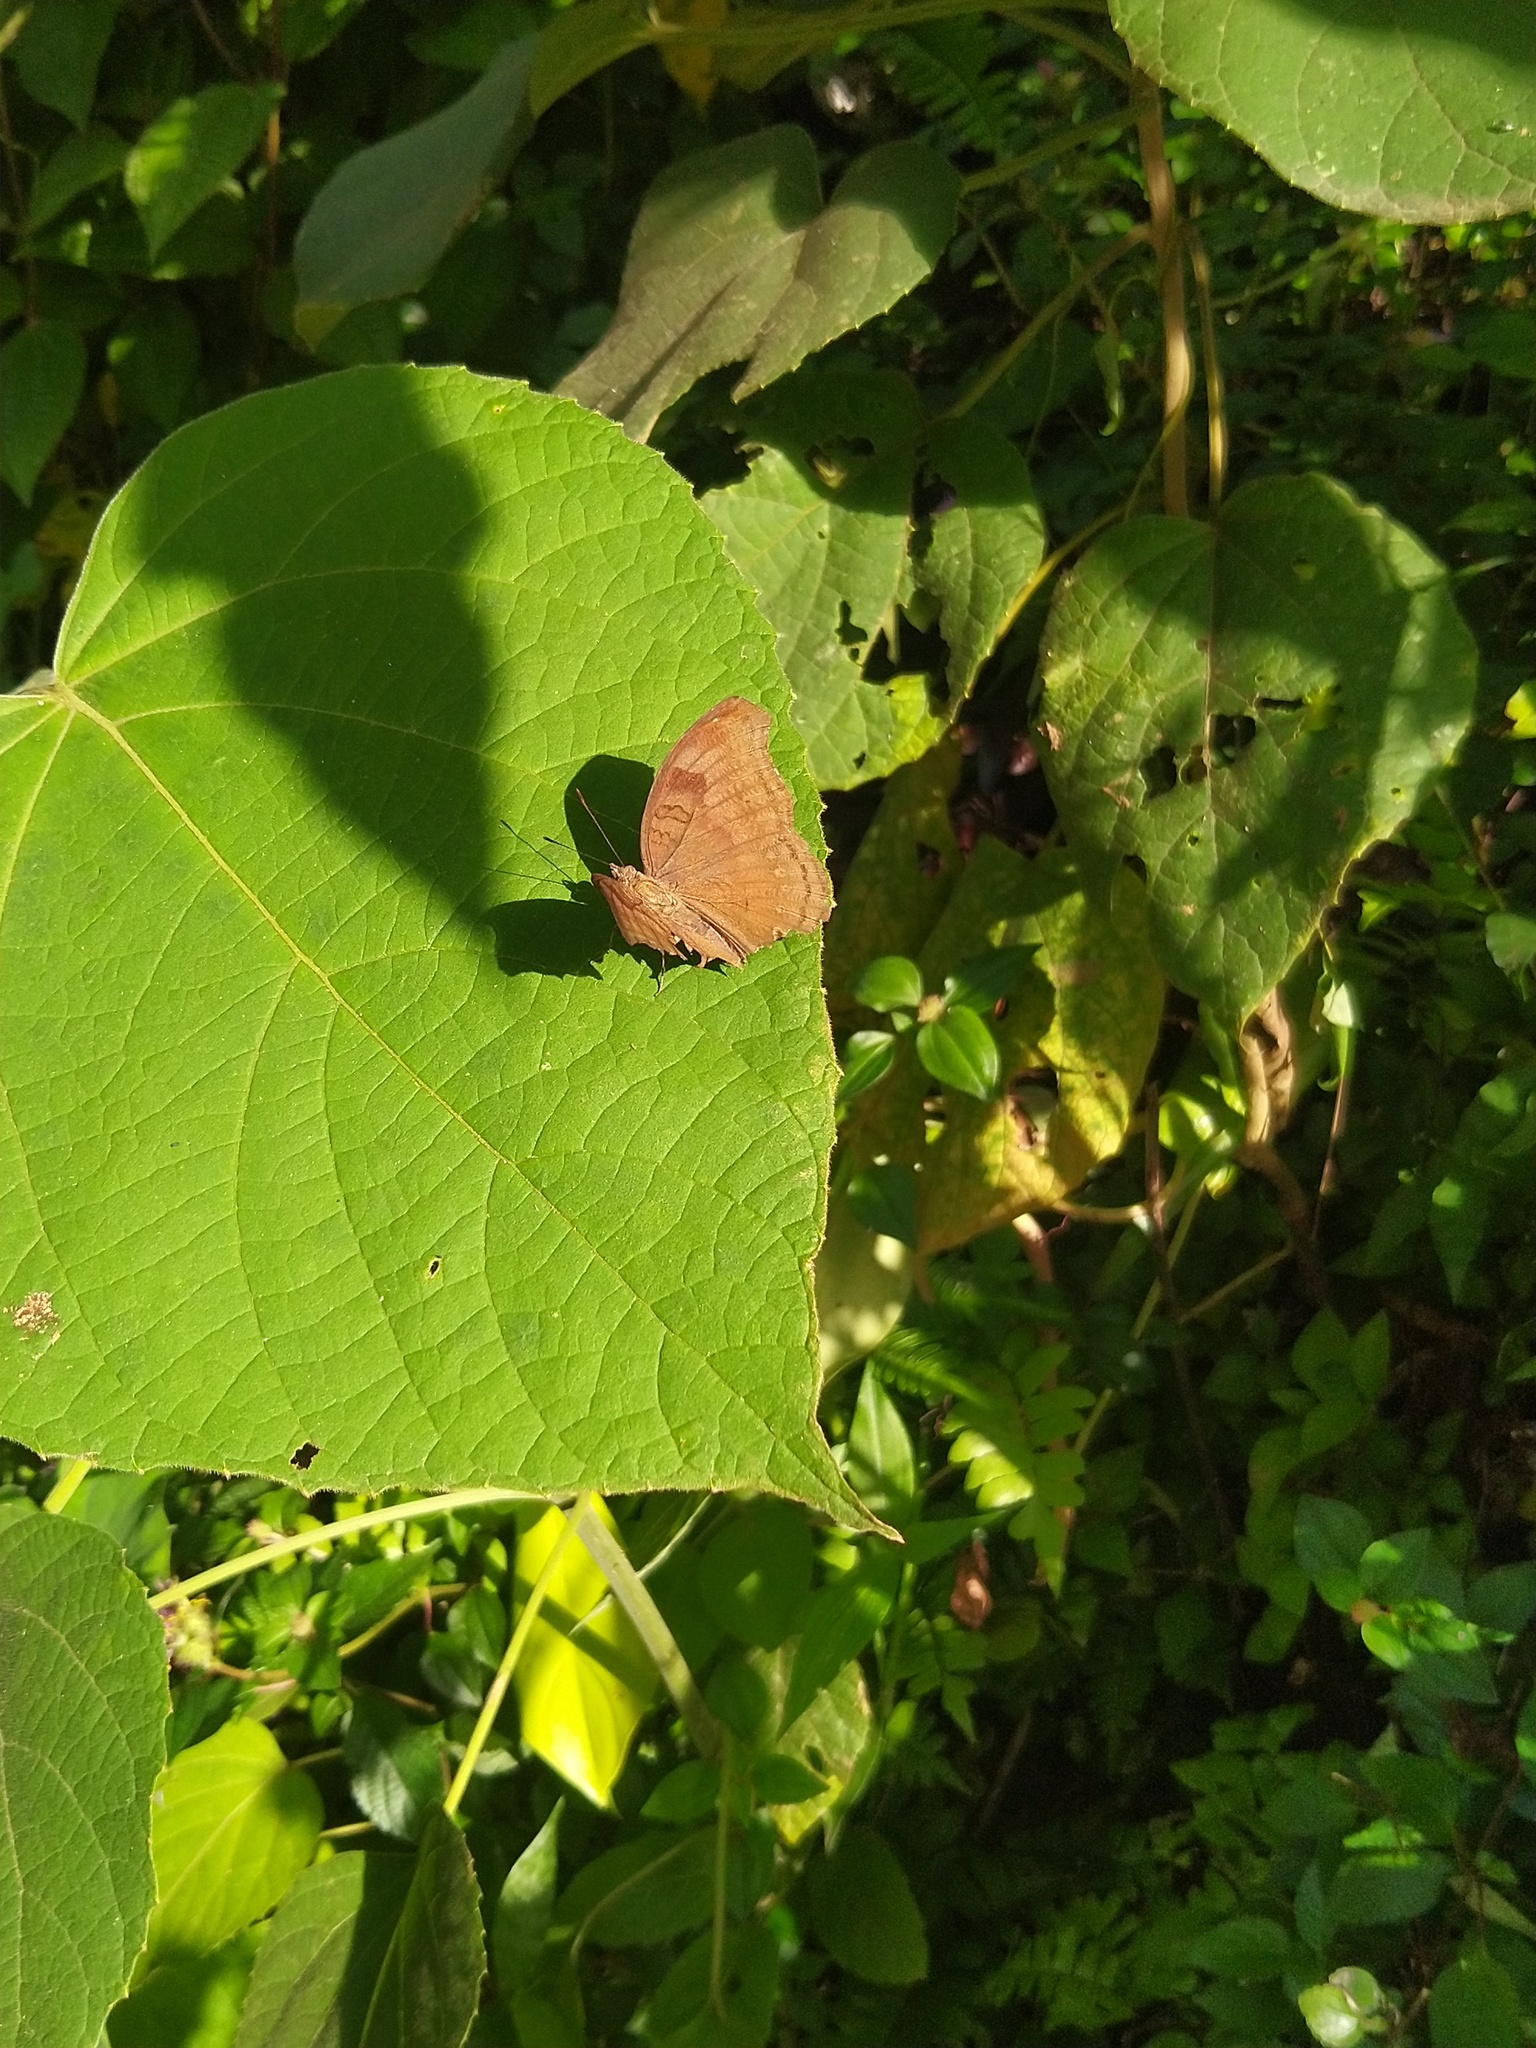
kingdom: Animalia
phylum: Arthropoda
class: Insecta
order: Lepidoptera
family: Nymphalidae
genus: Junonia
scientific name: Junonia iphita
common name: Chocolate pansy
